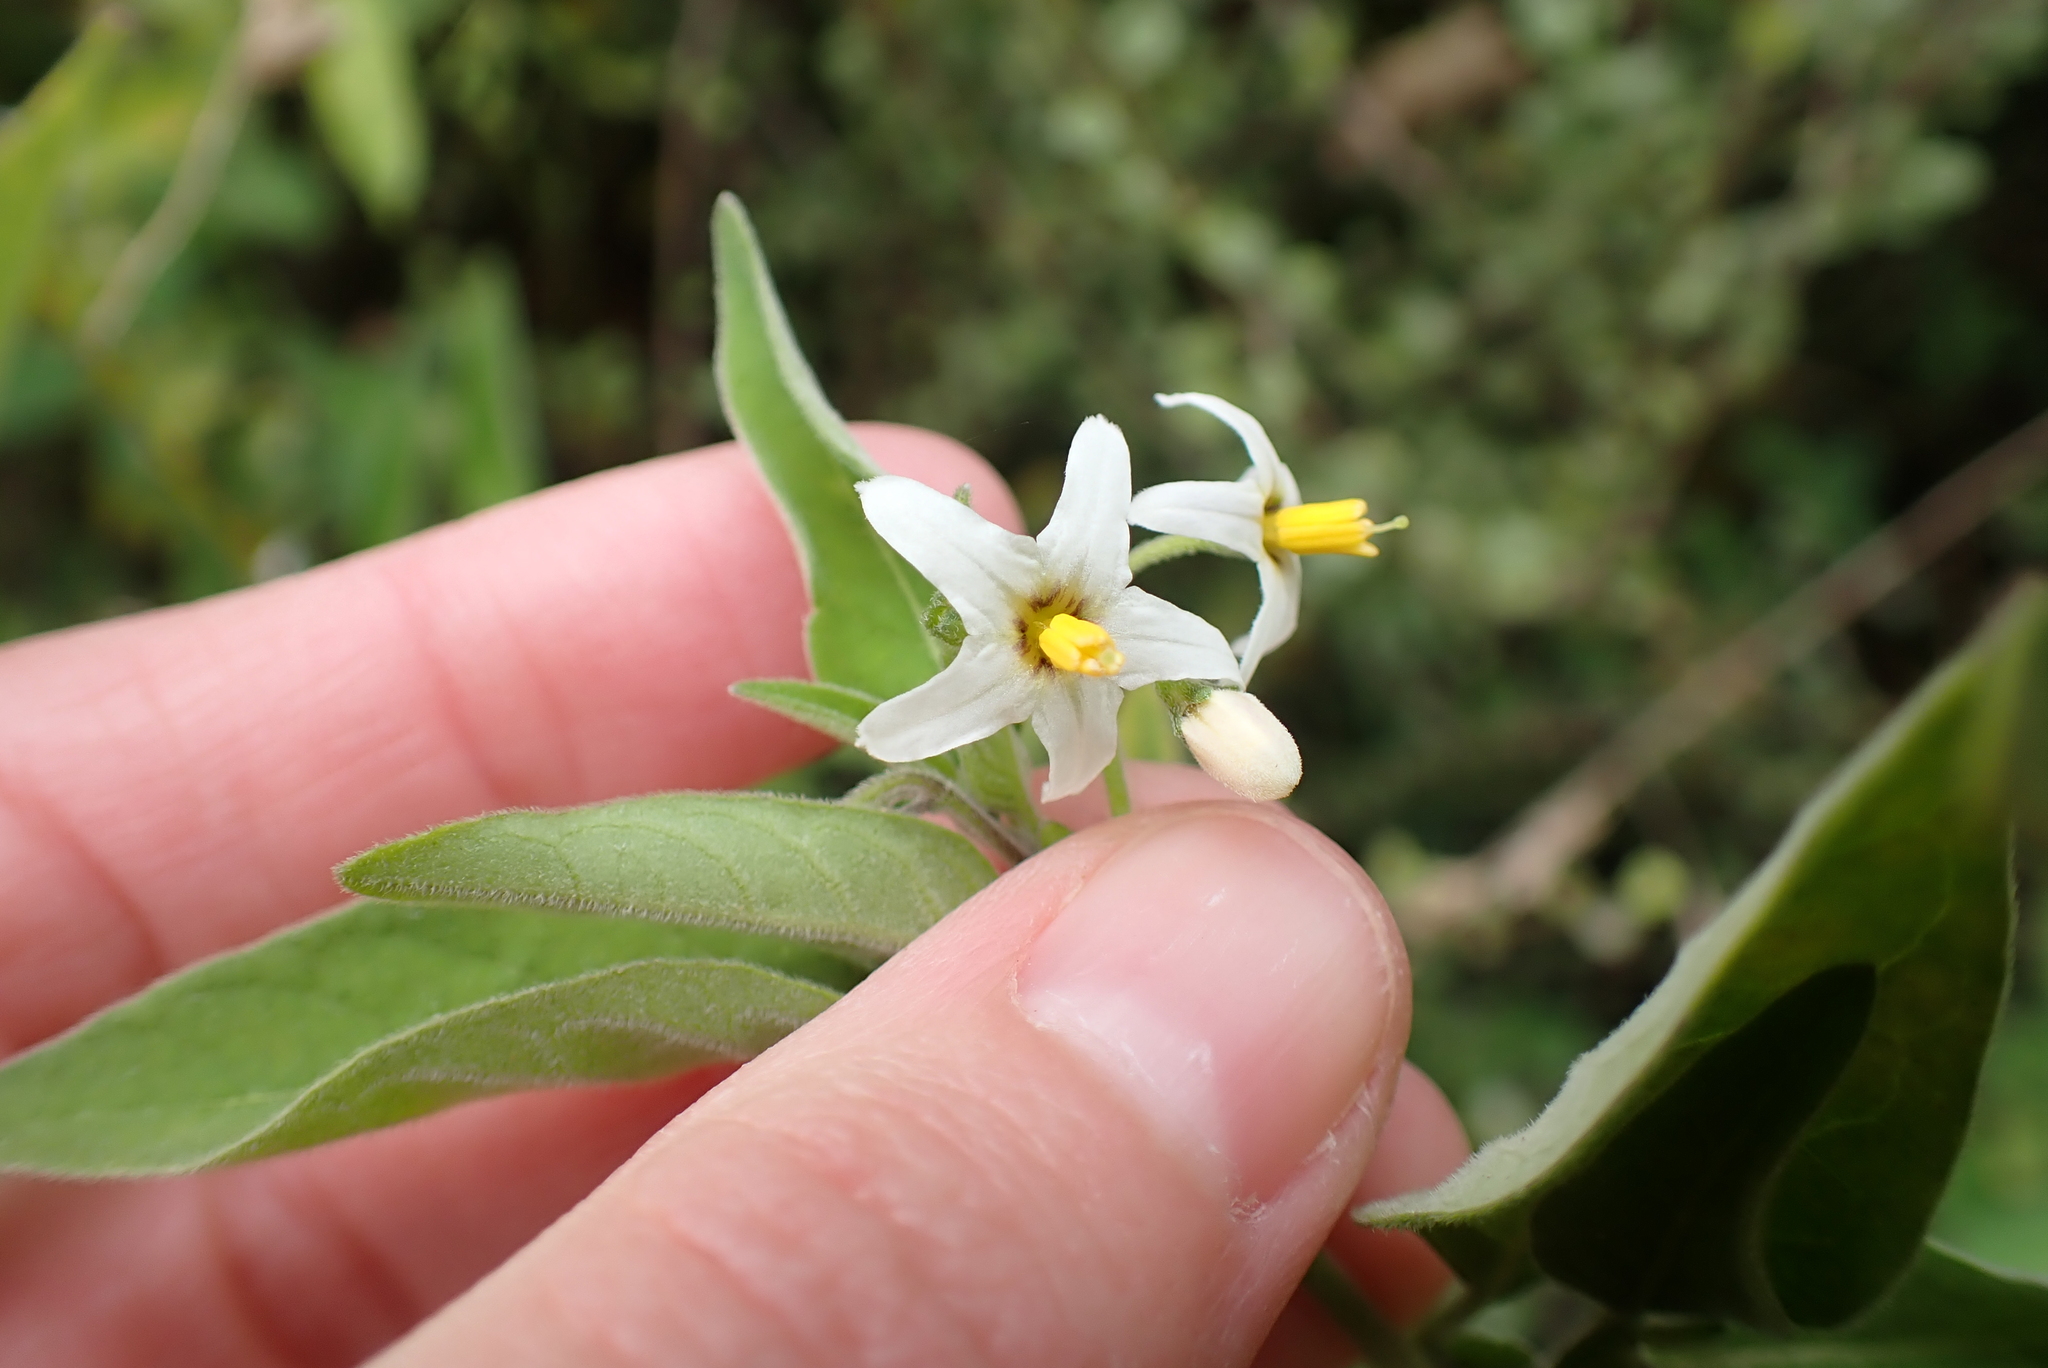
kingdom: Plantae
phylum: Tracheophyta
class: Magnoliopsida
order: Solanales
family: Solanaceae
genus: Solanum
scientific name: Solanum chenopodioides
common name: Tall nightshade
